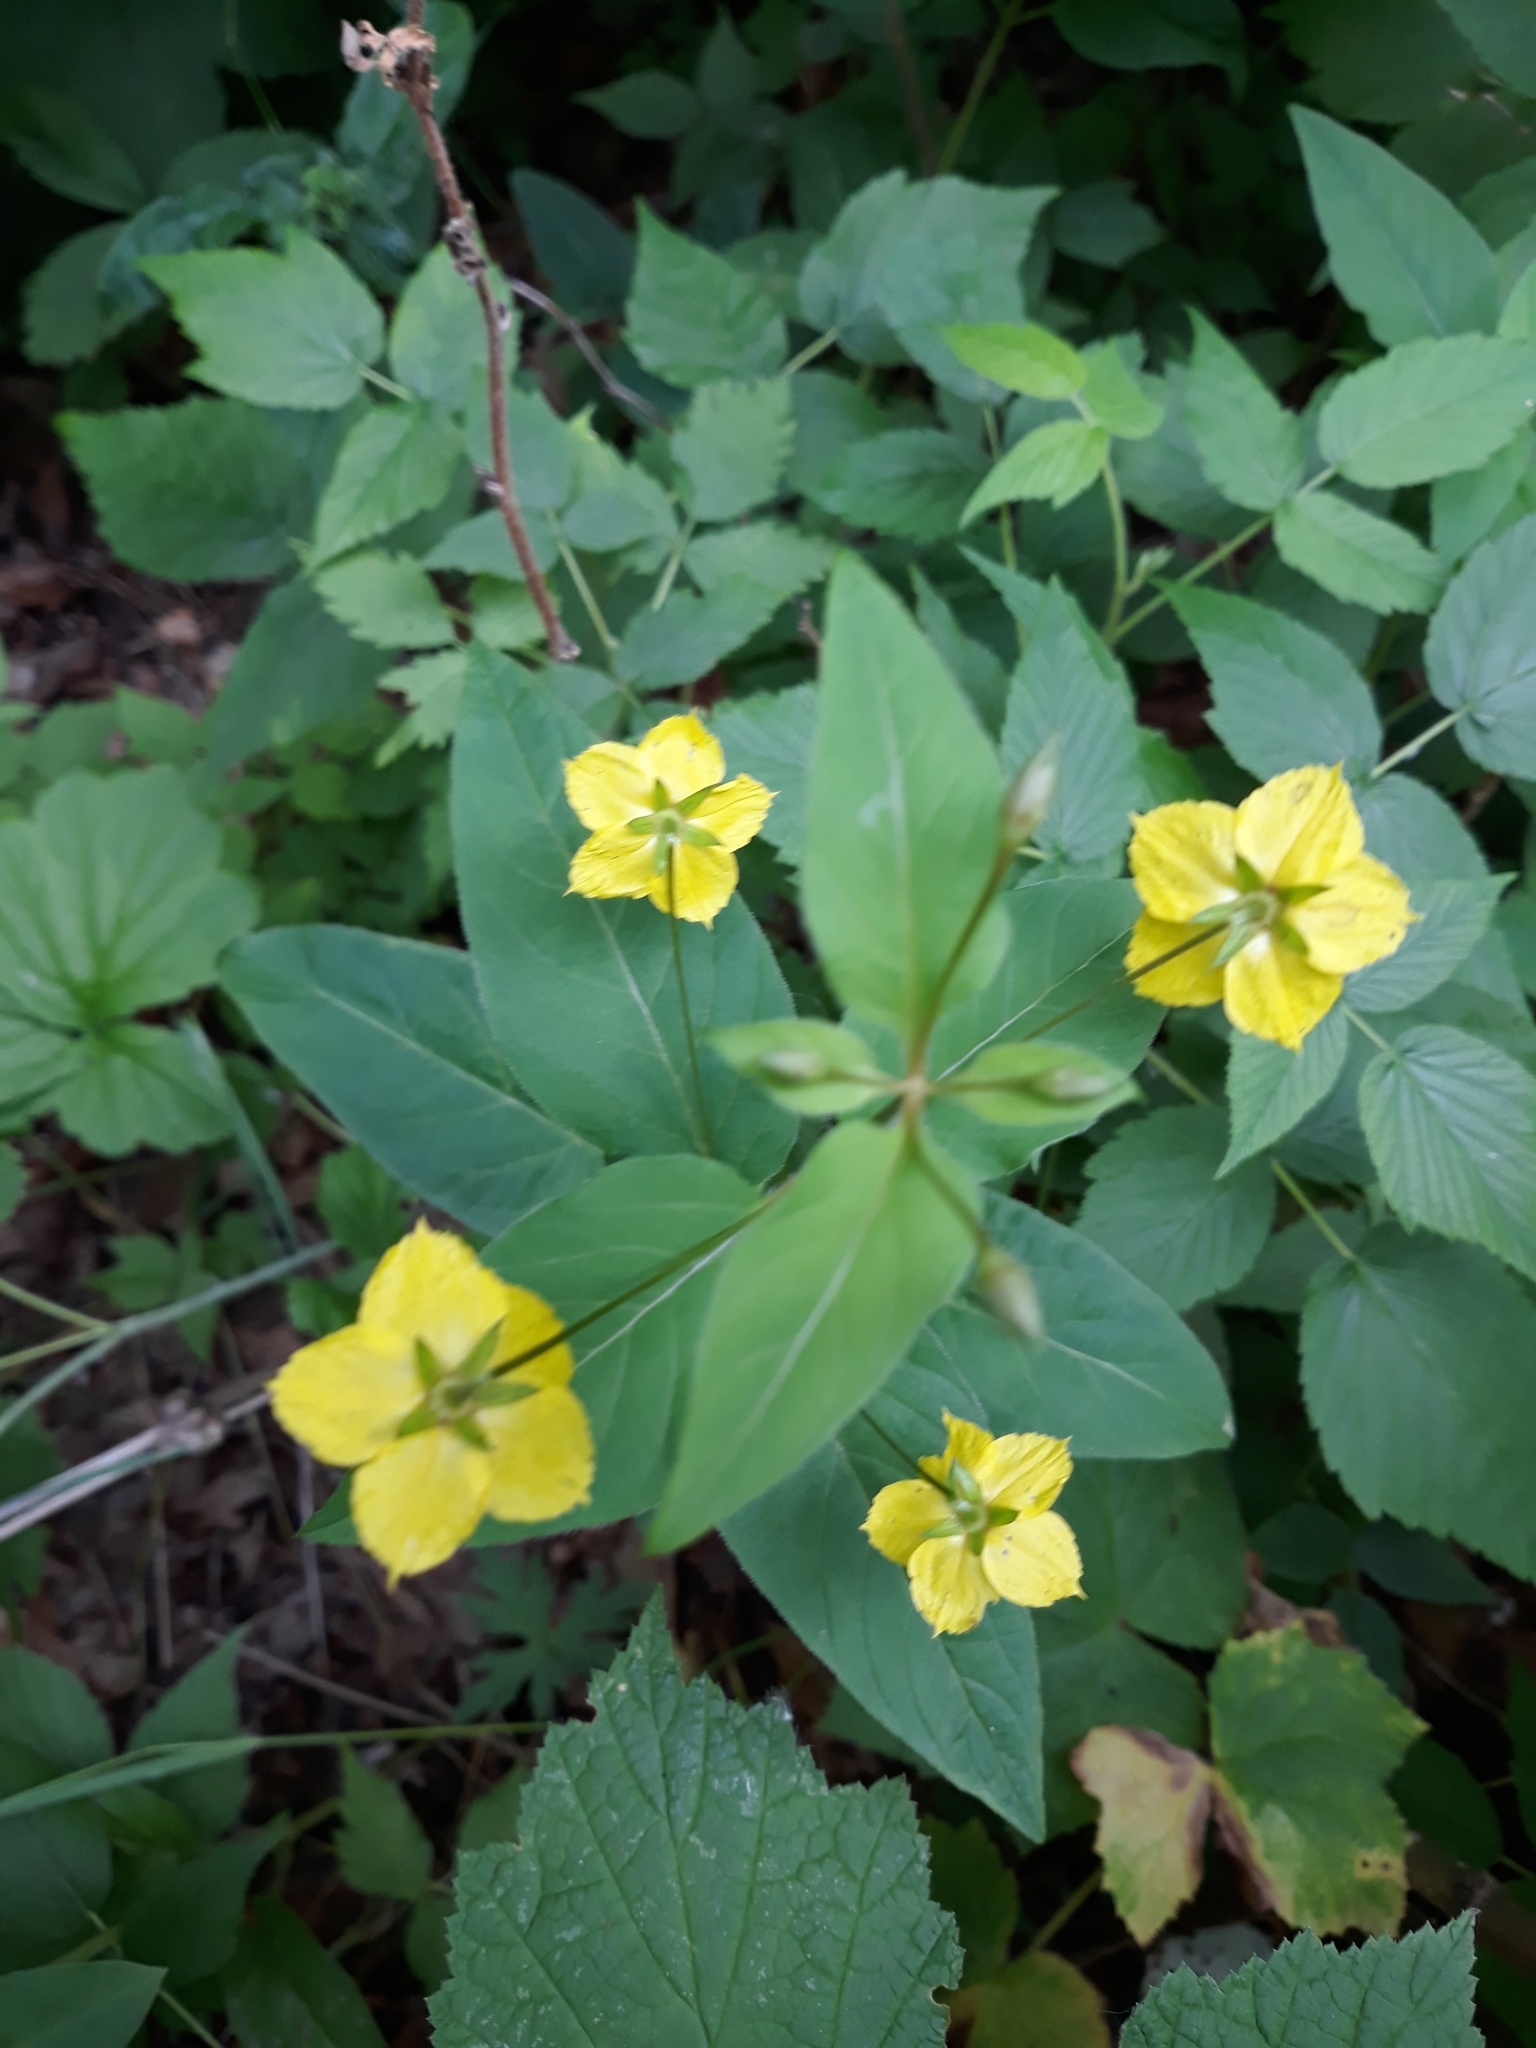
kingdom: Plantae
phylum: Tracheophyta
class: Magnoliopsida
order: Ericales
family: Primulaceae
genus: Lysimachia
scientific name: Lysimachia ciliata
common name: Fringed loosestrife
